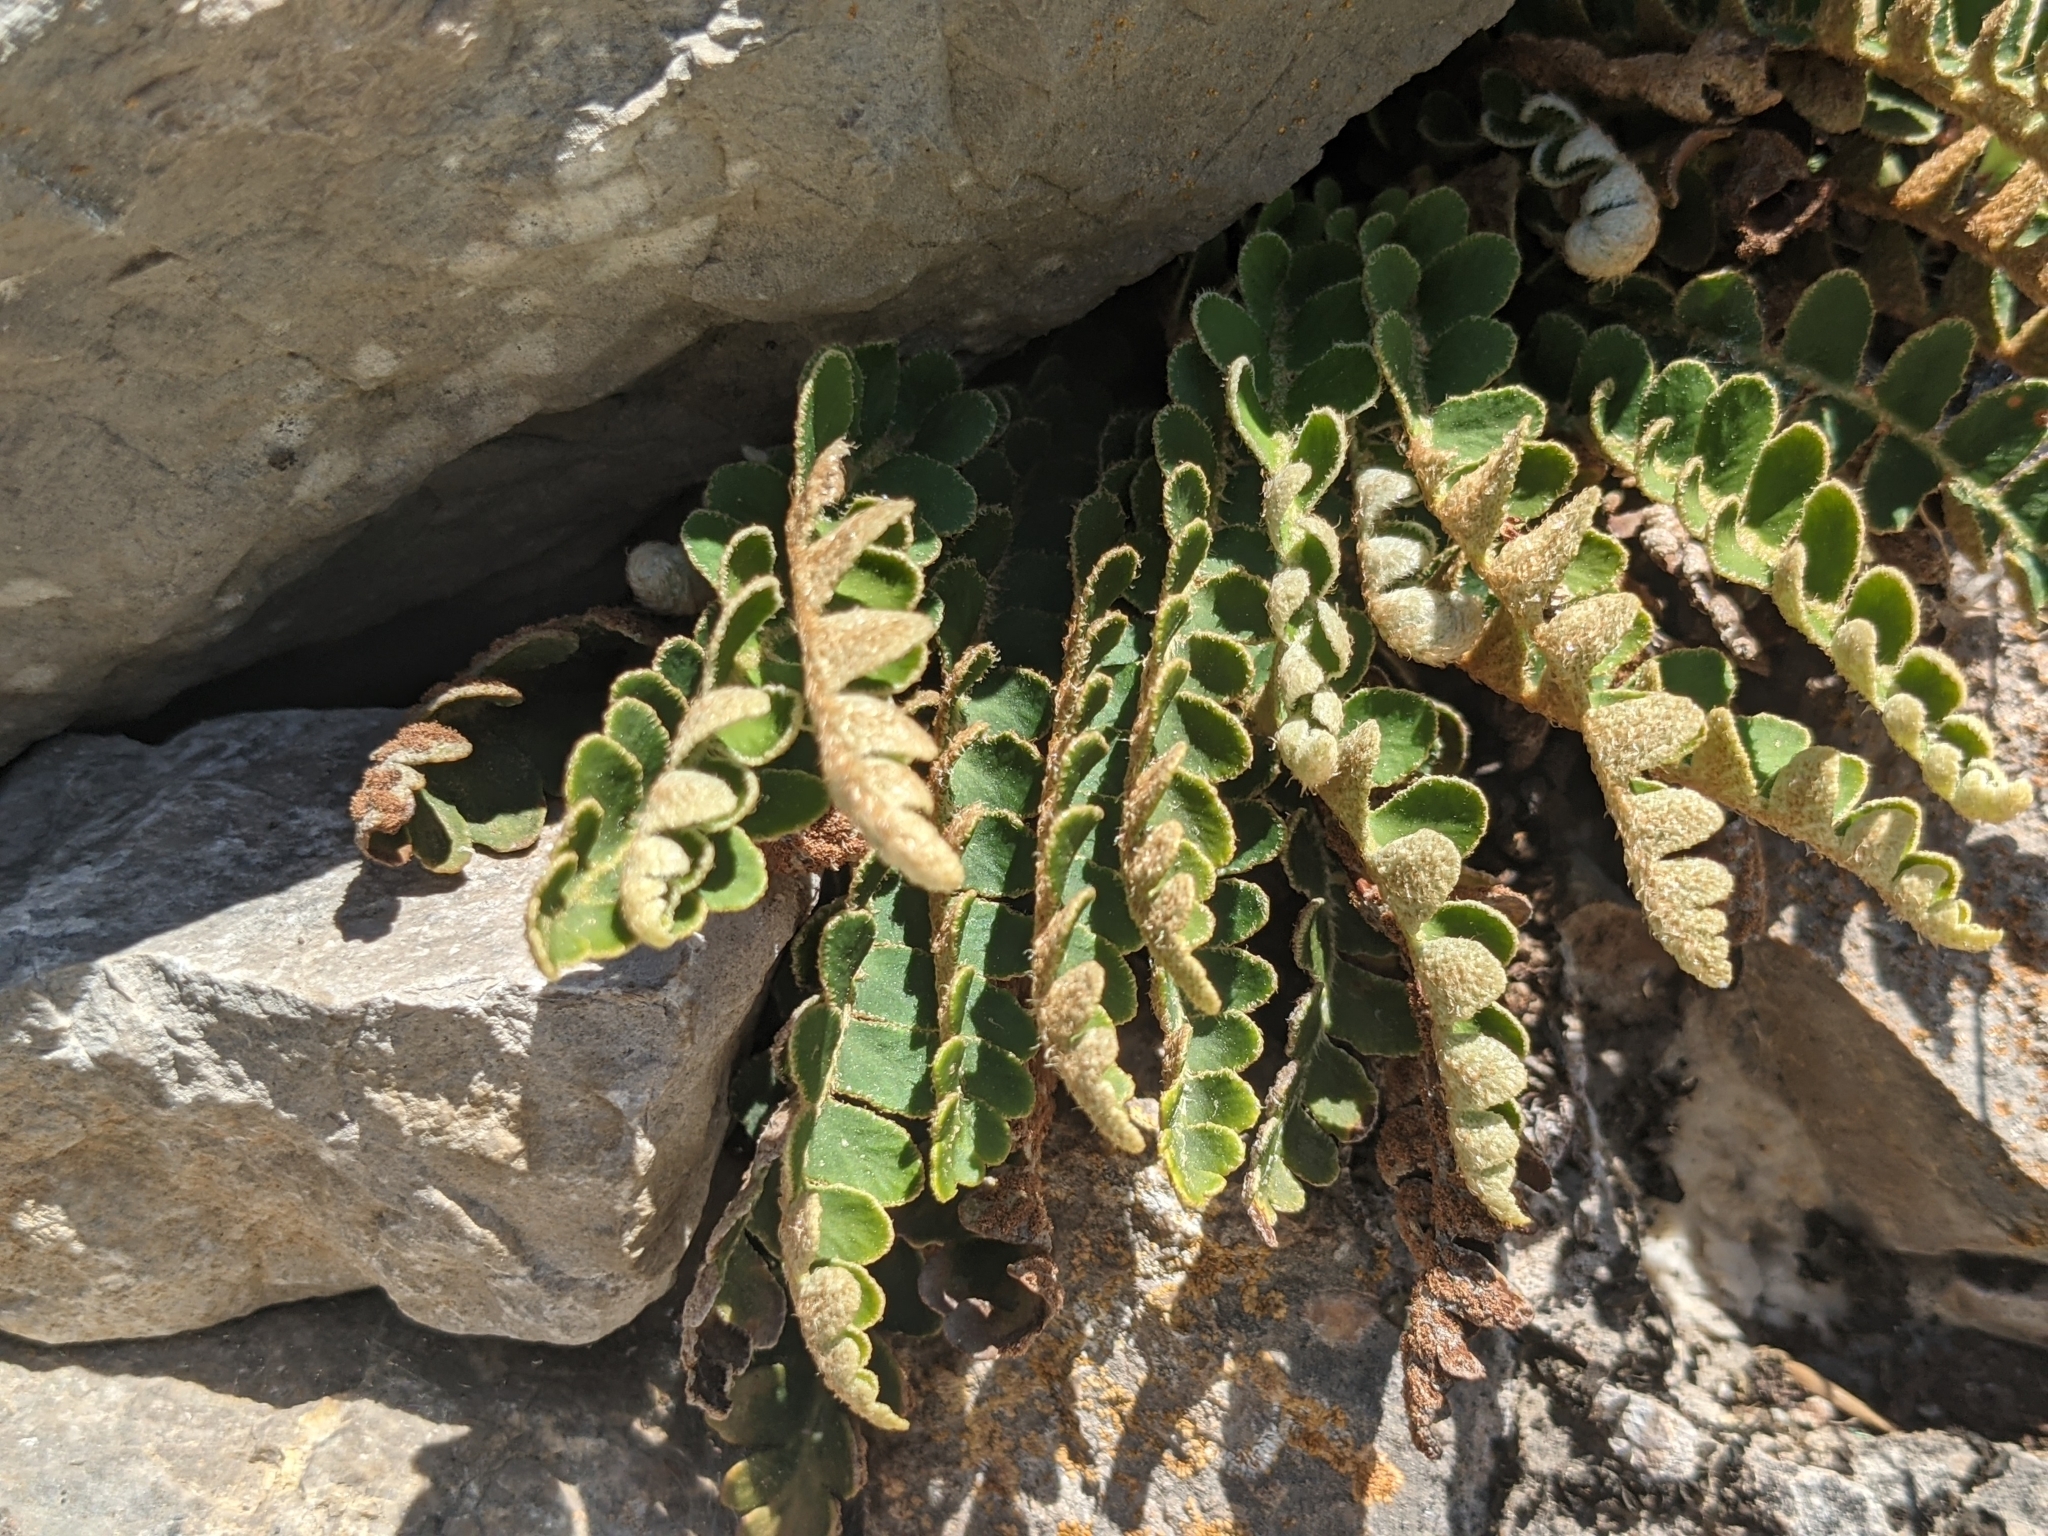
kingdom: Plantae
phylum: Tracheophyta
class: Polypodiopsida
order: Polypodiales
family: Aspleniaceae
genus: Asplenium
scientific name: Asplenium ceterach
